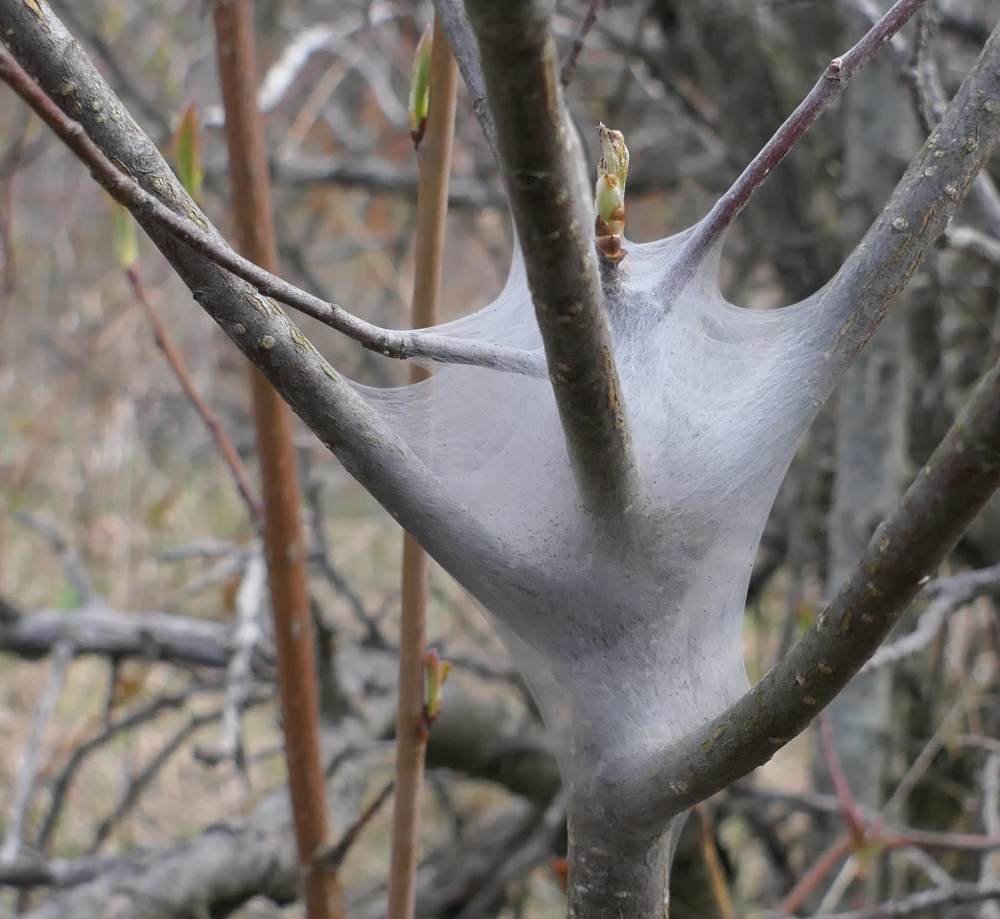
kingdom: Animalia
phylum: Arthropoda
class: Insecta
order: Lepidoptera
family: Lasiocampidae
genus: Malacosoma
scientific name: Malacosoma americana
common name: Eastern tent caterpillar moth
